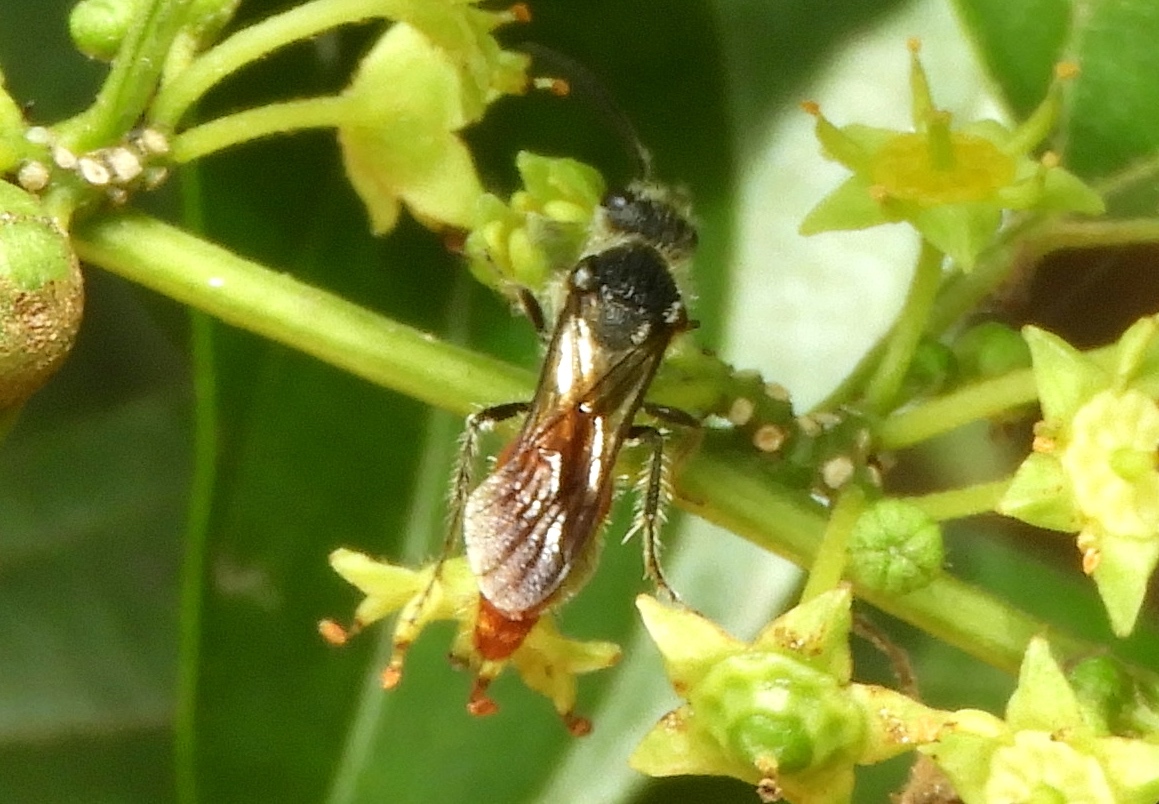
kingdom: Animalia
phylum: Arthropoda
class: Insecta
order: Hymenoptera
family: Mutillidae
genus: Timulla
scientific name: Timulla
